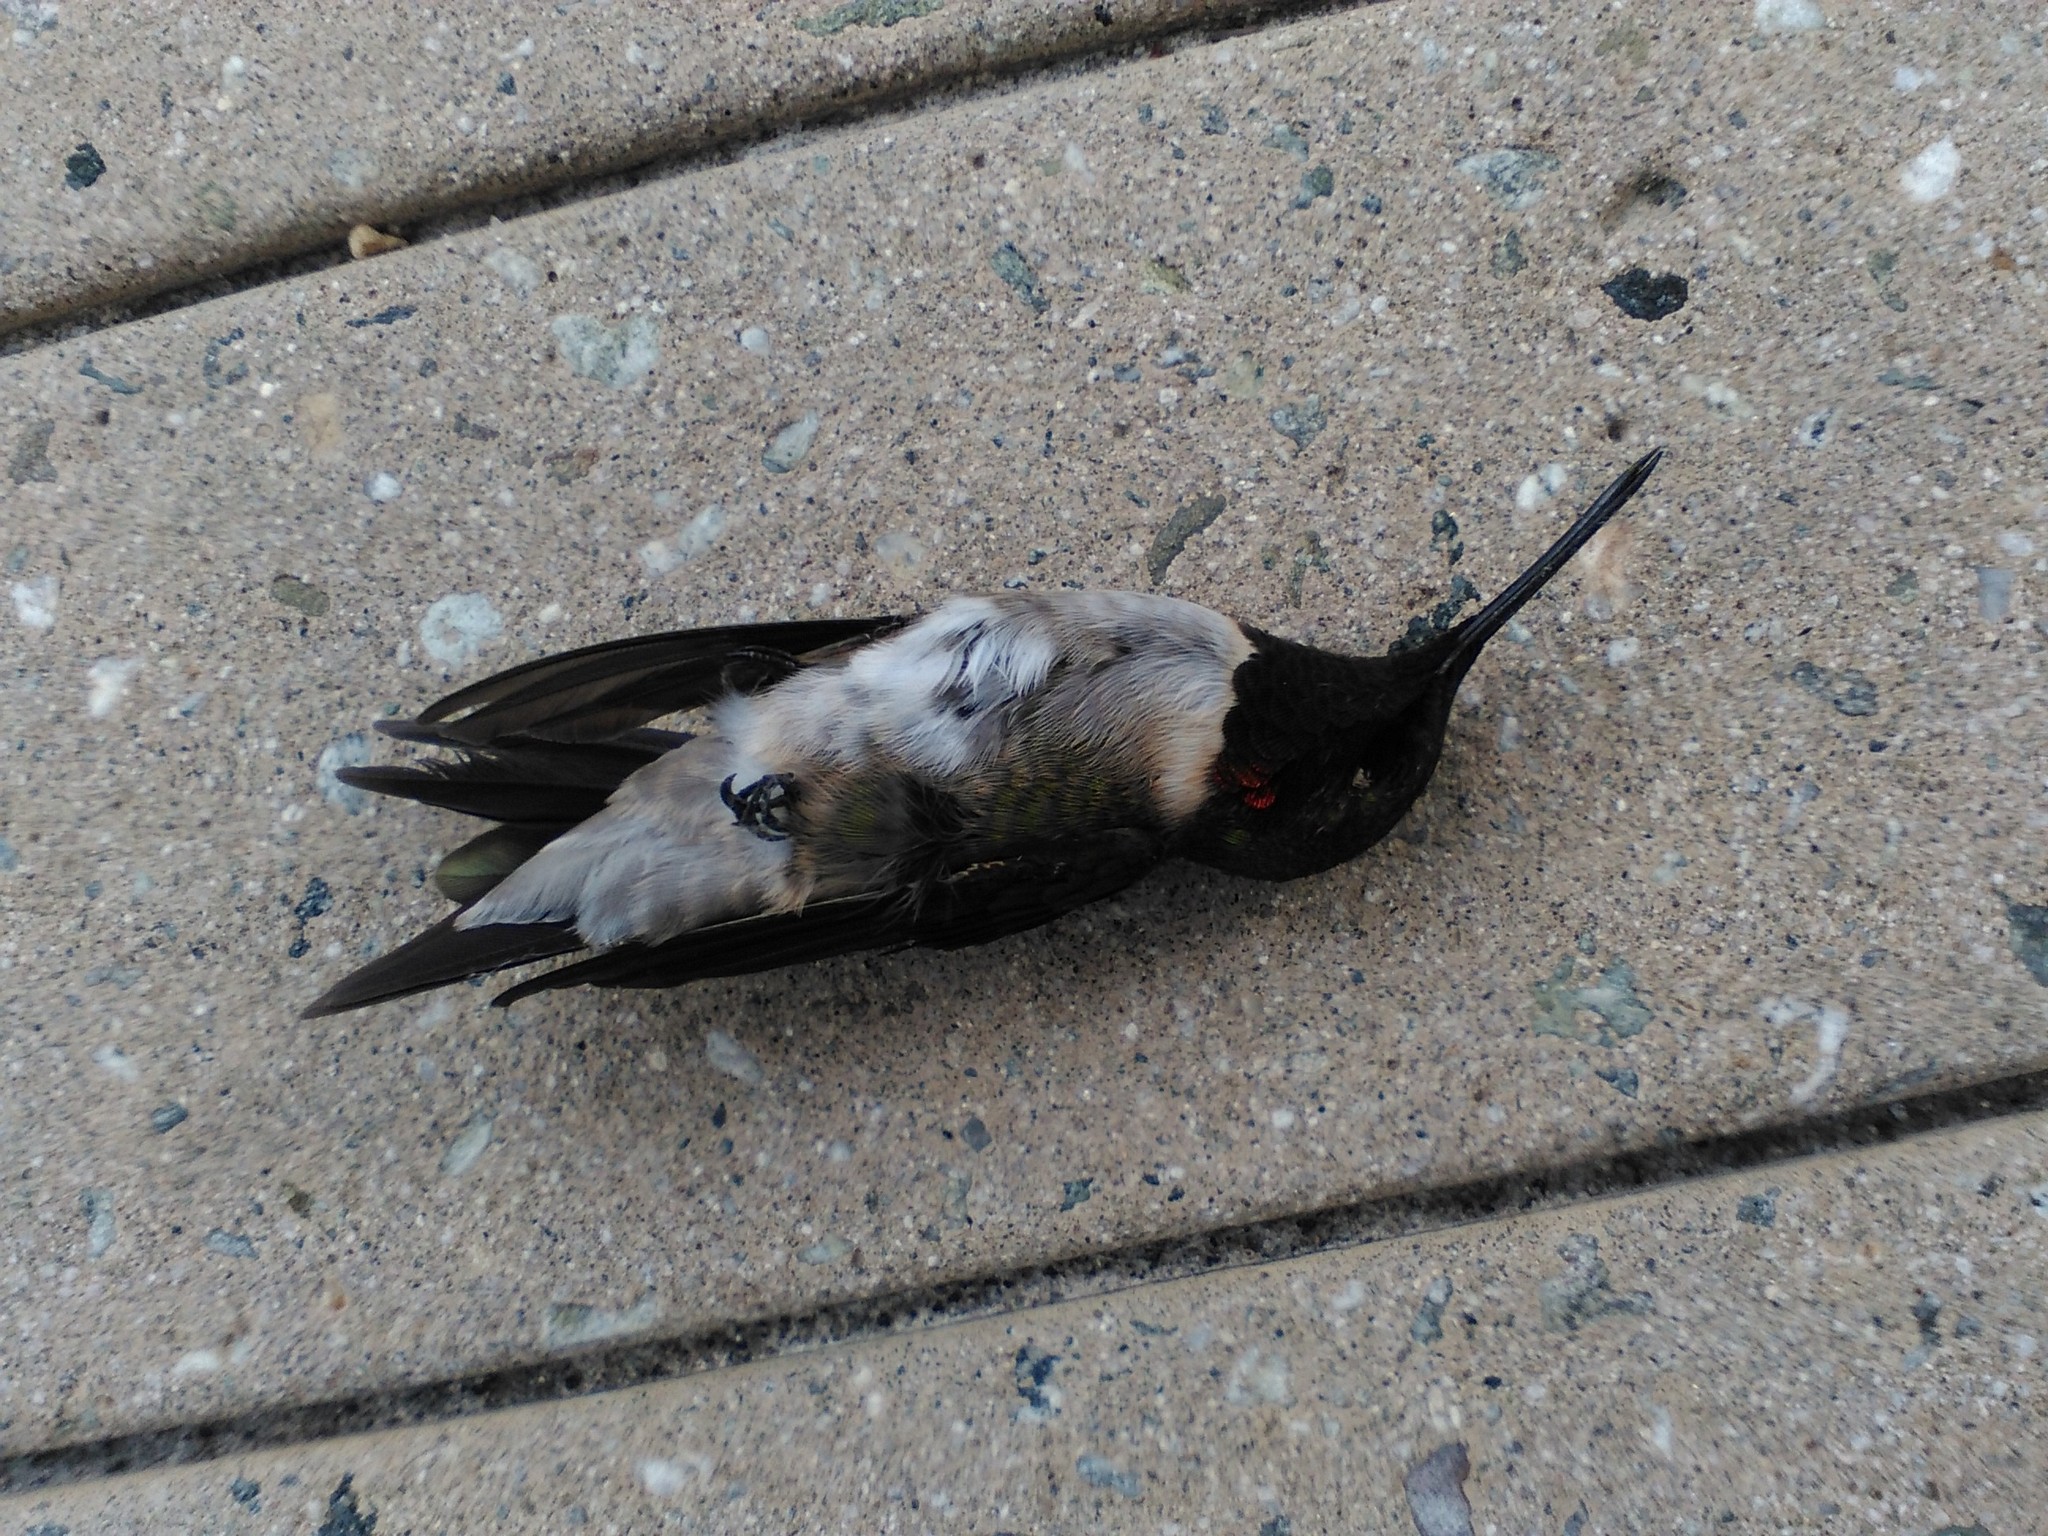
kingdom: Animalia
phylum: Chordata
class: Aves
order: Apodiformes
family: Trochilidae
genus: Archilochus
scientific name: Archilochus colubris
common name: Ruby-throated hummingbird
